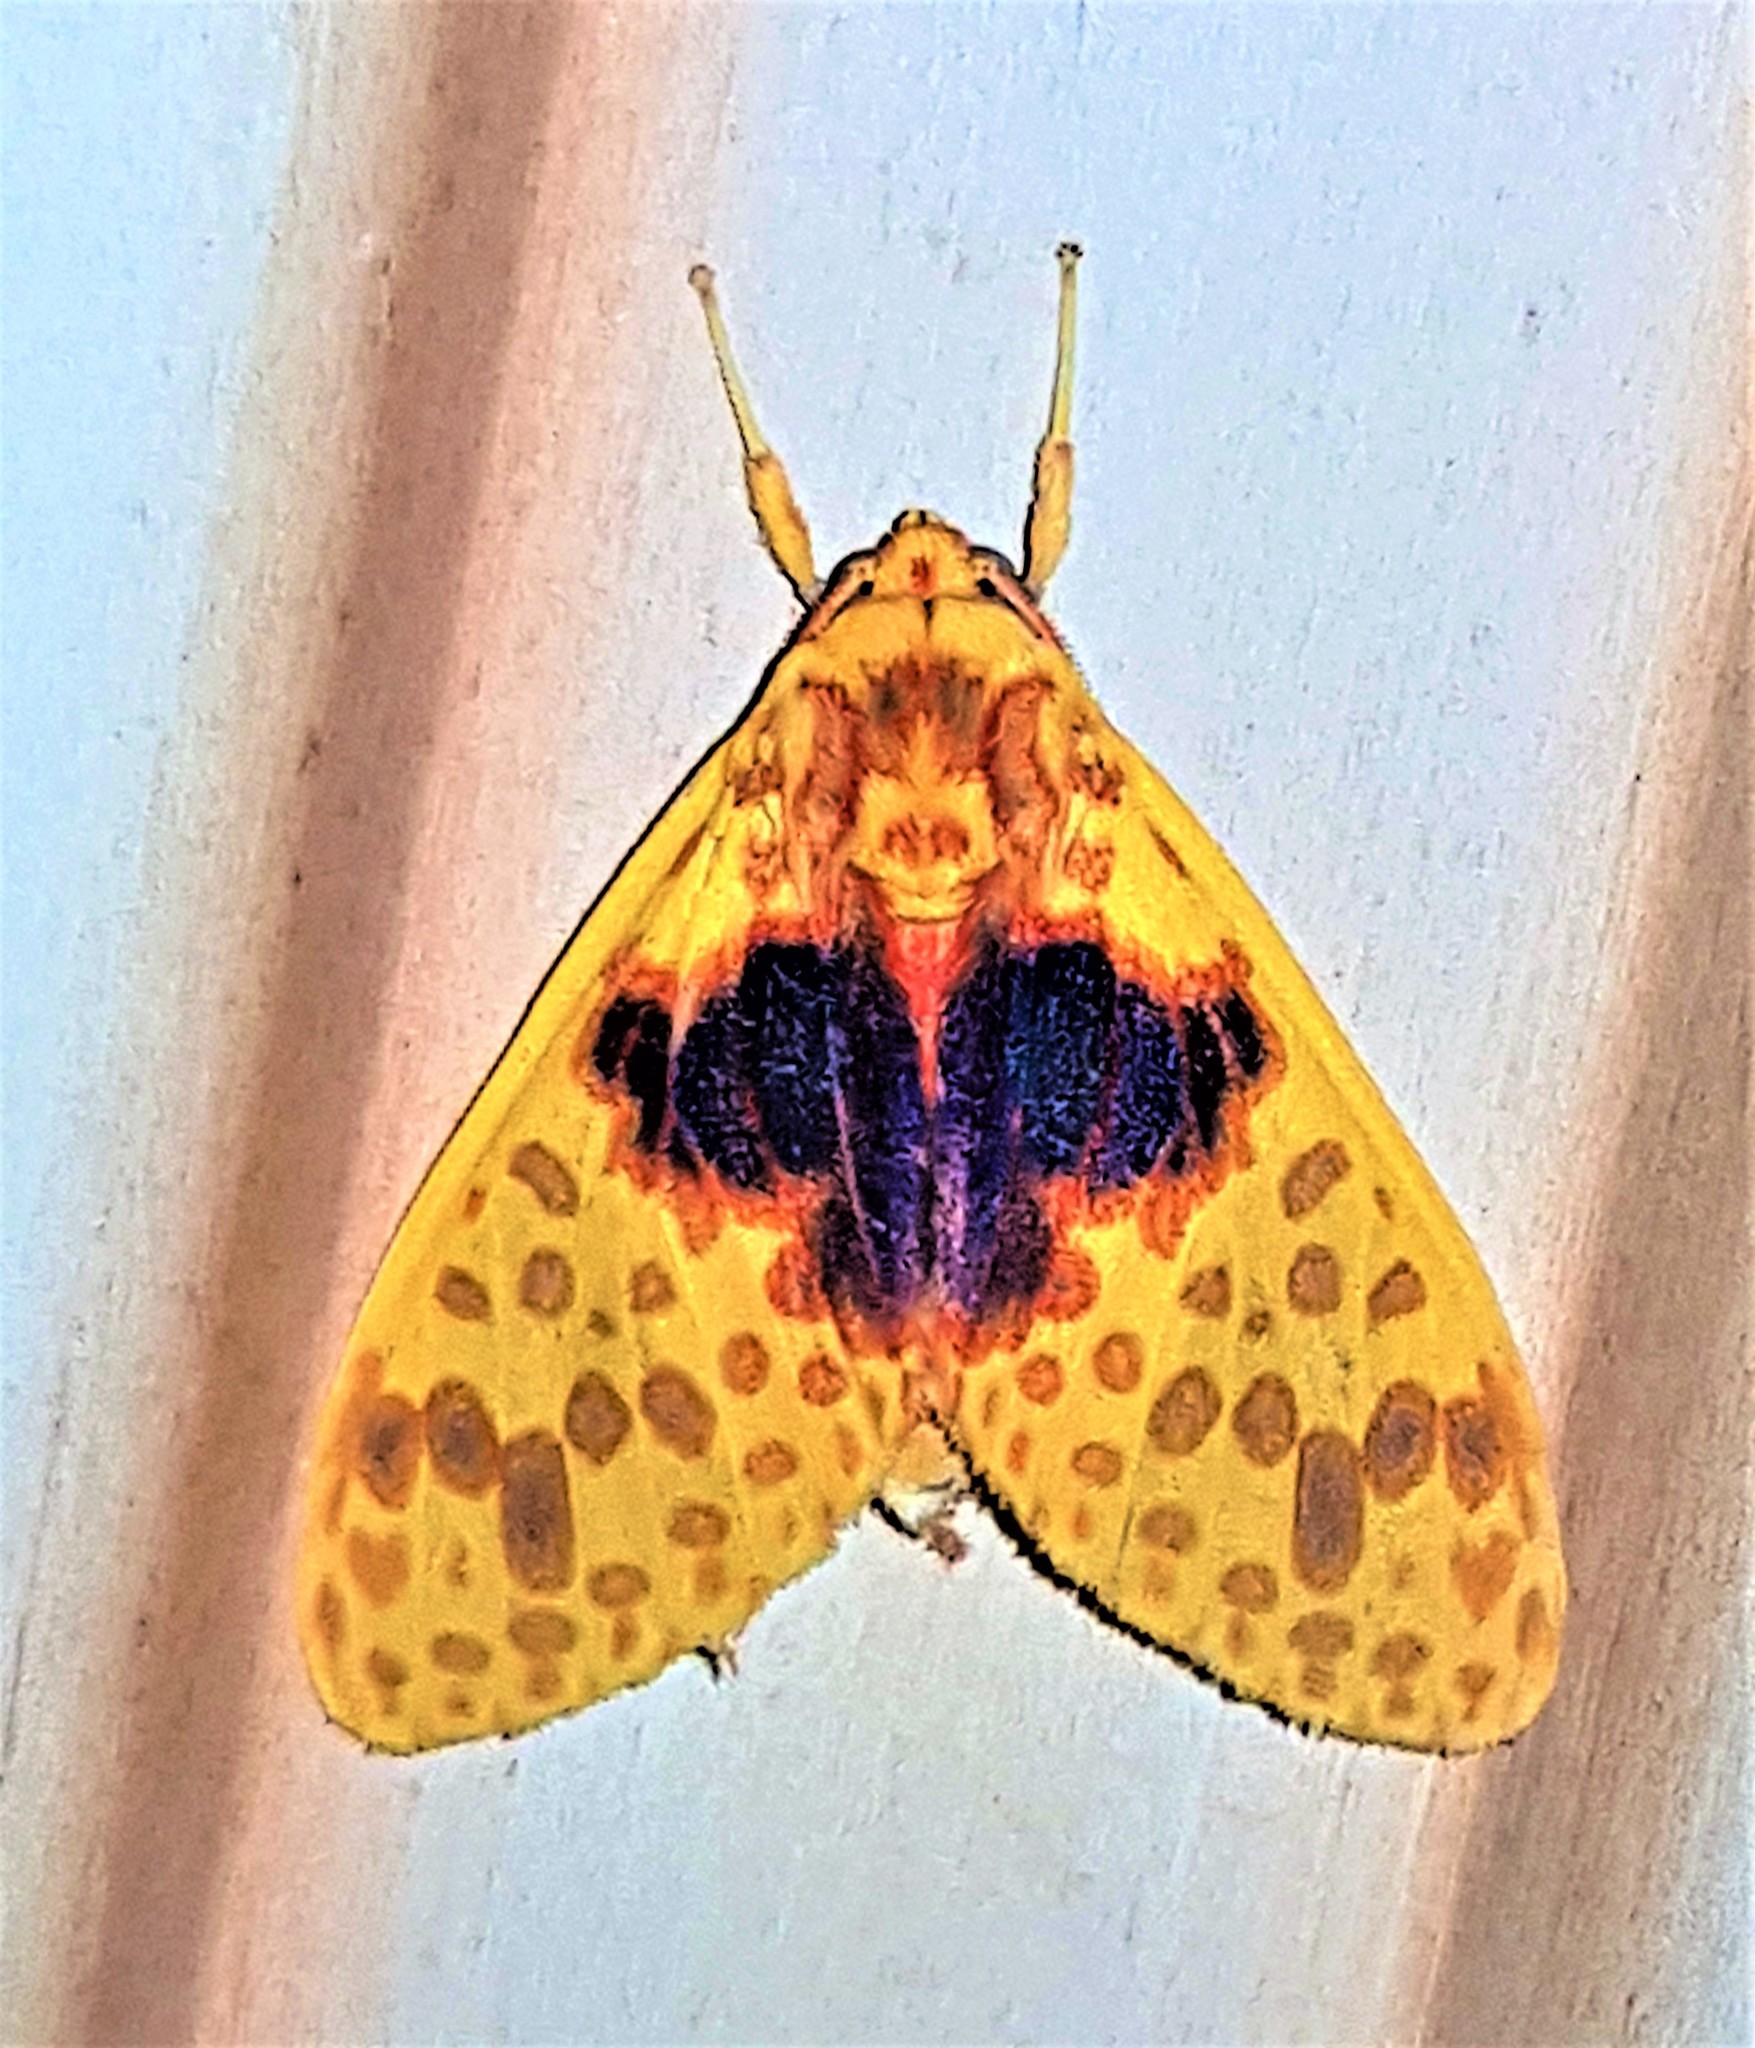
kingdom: Animalia
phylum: Arthropoda
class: Insecta
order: Lepidoptera
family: Erebidae
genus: Amaxia
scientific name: Amaxia pulchra
